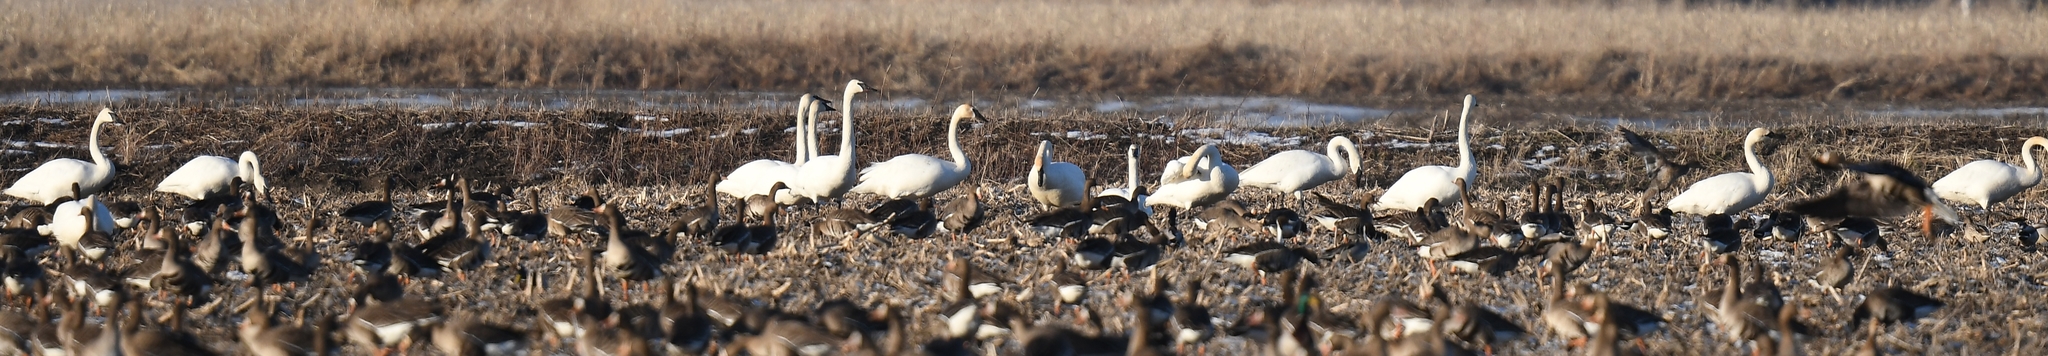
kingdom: Animalia
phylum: Chordata
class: Aves
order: Anseriformes
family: Anatidae
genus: Cygnus
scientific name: Cygnus buccinator
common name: Trumpeter swan
